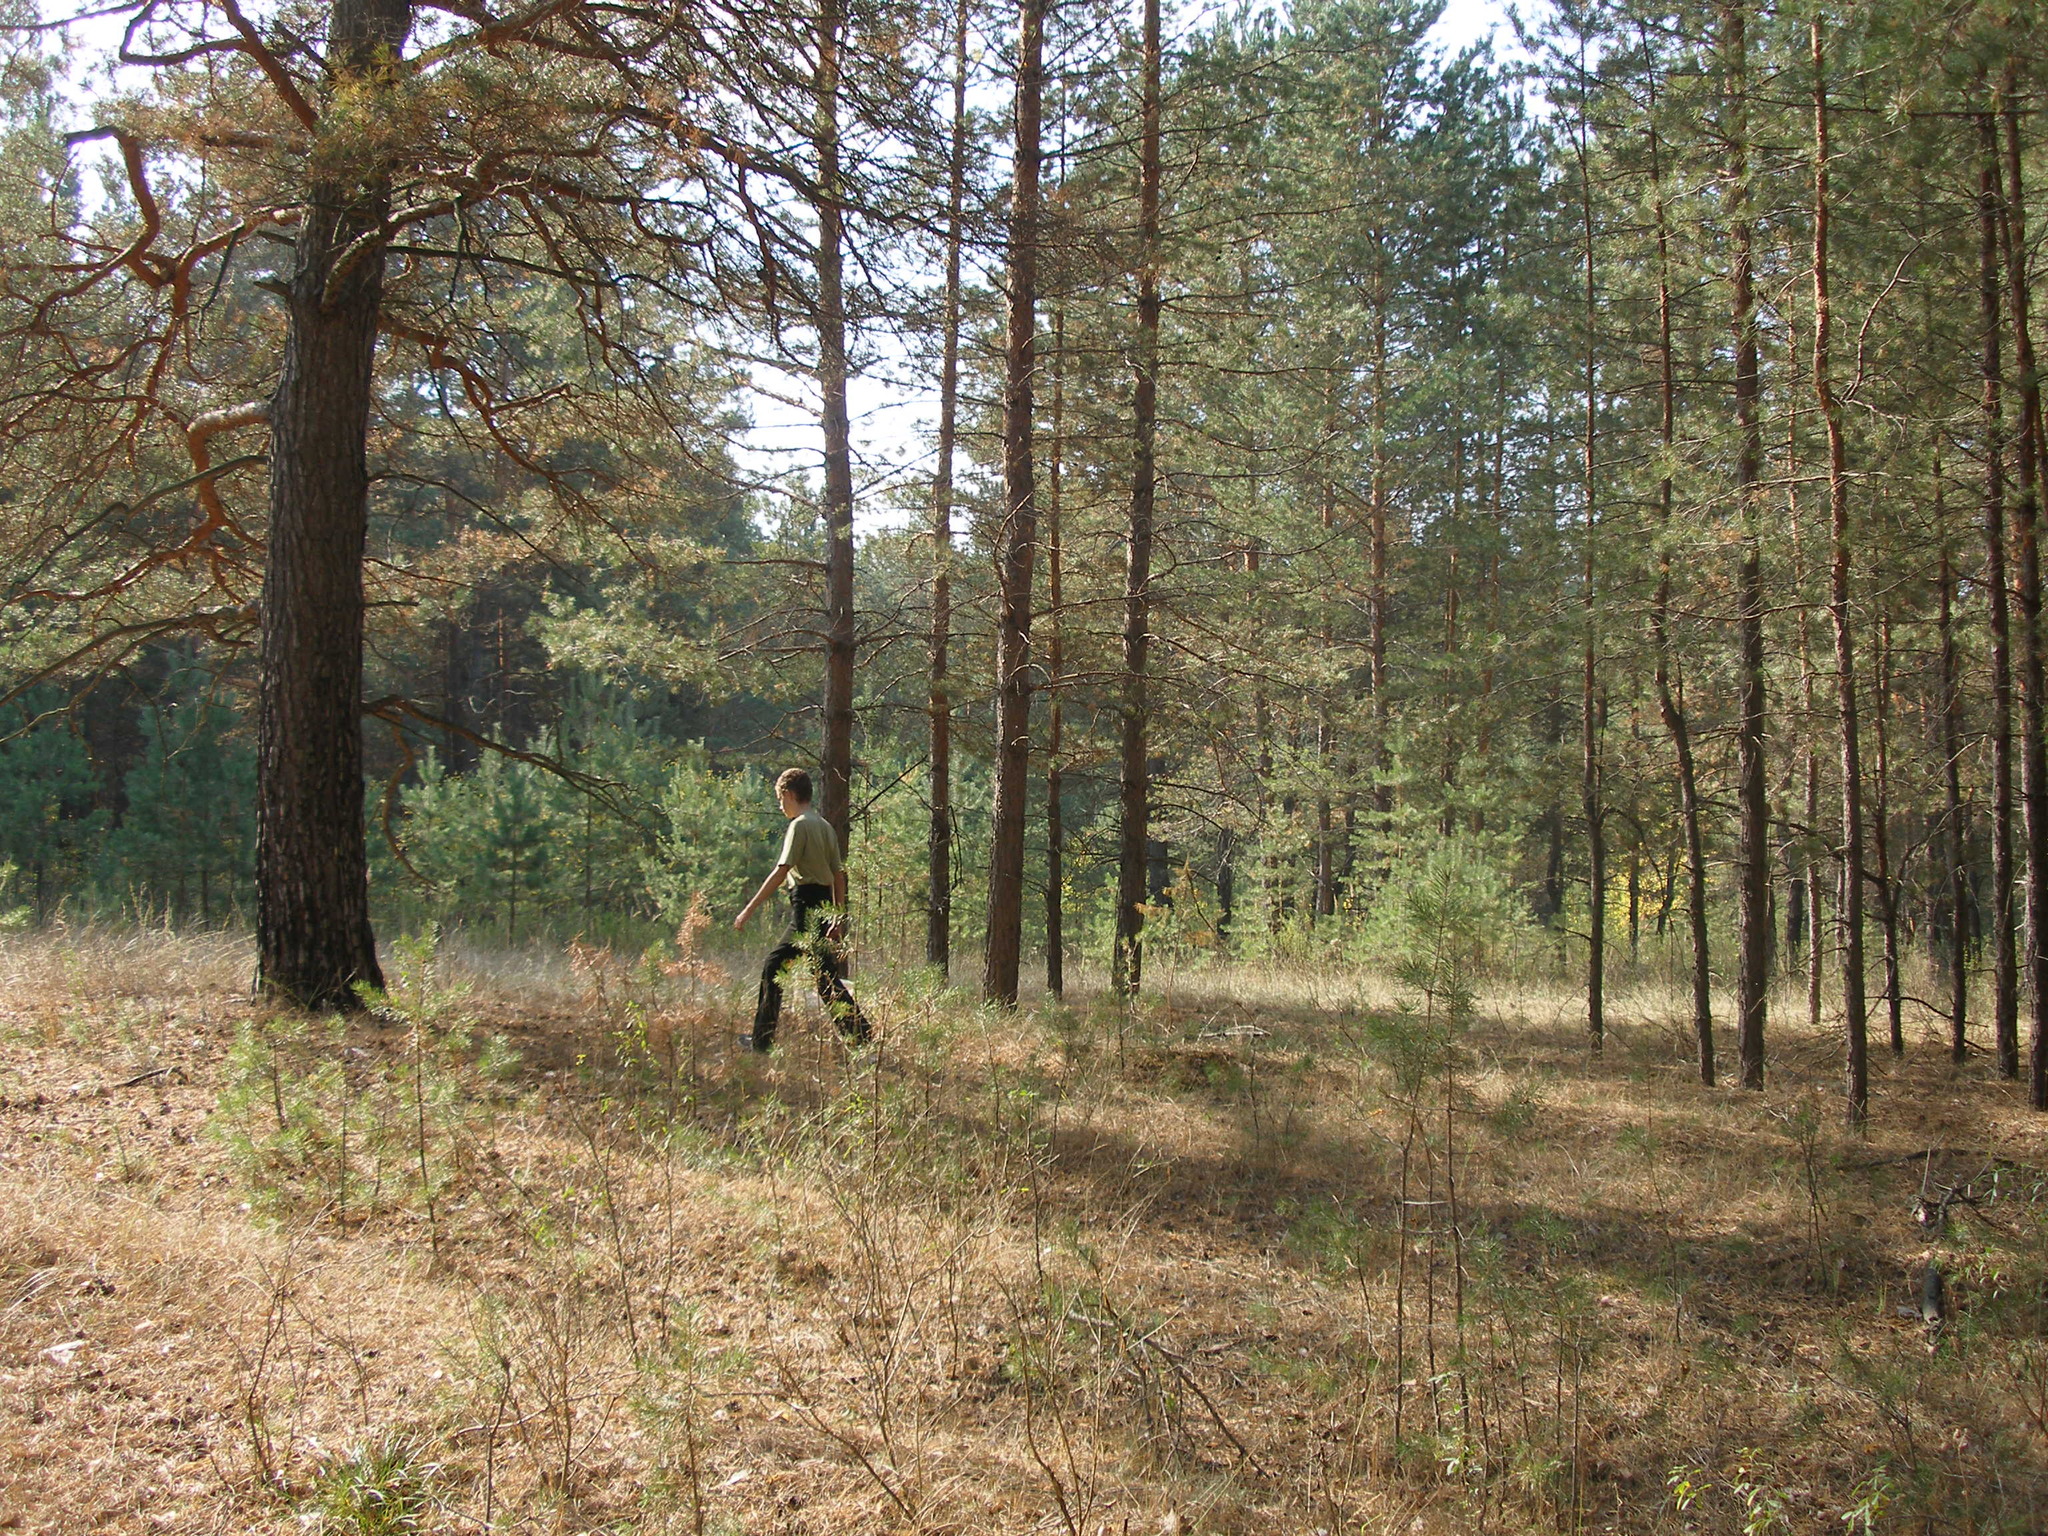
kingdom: Plantae
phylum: Tracheophyta
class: Pinopsida
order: Pinales
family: Pinaceae
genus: Pinus
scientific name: Pinus sylvestris
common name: Scots pine
